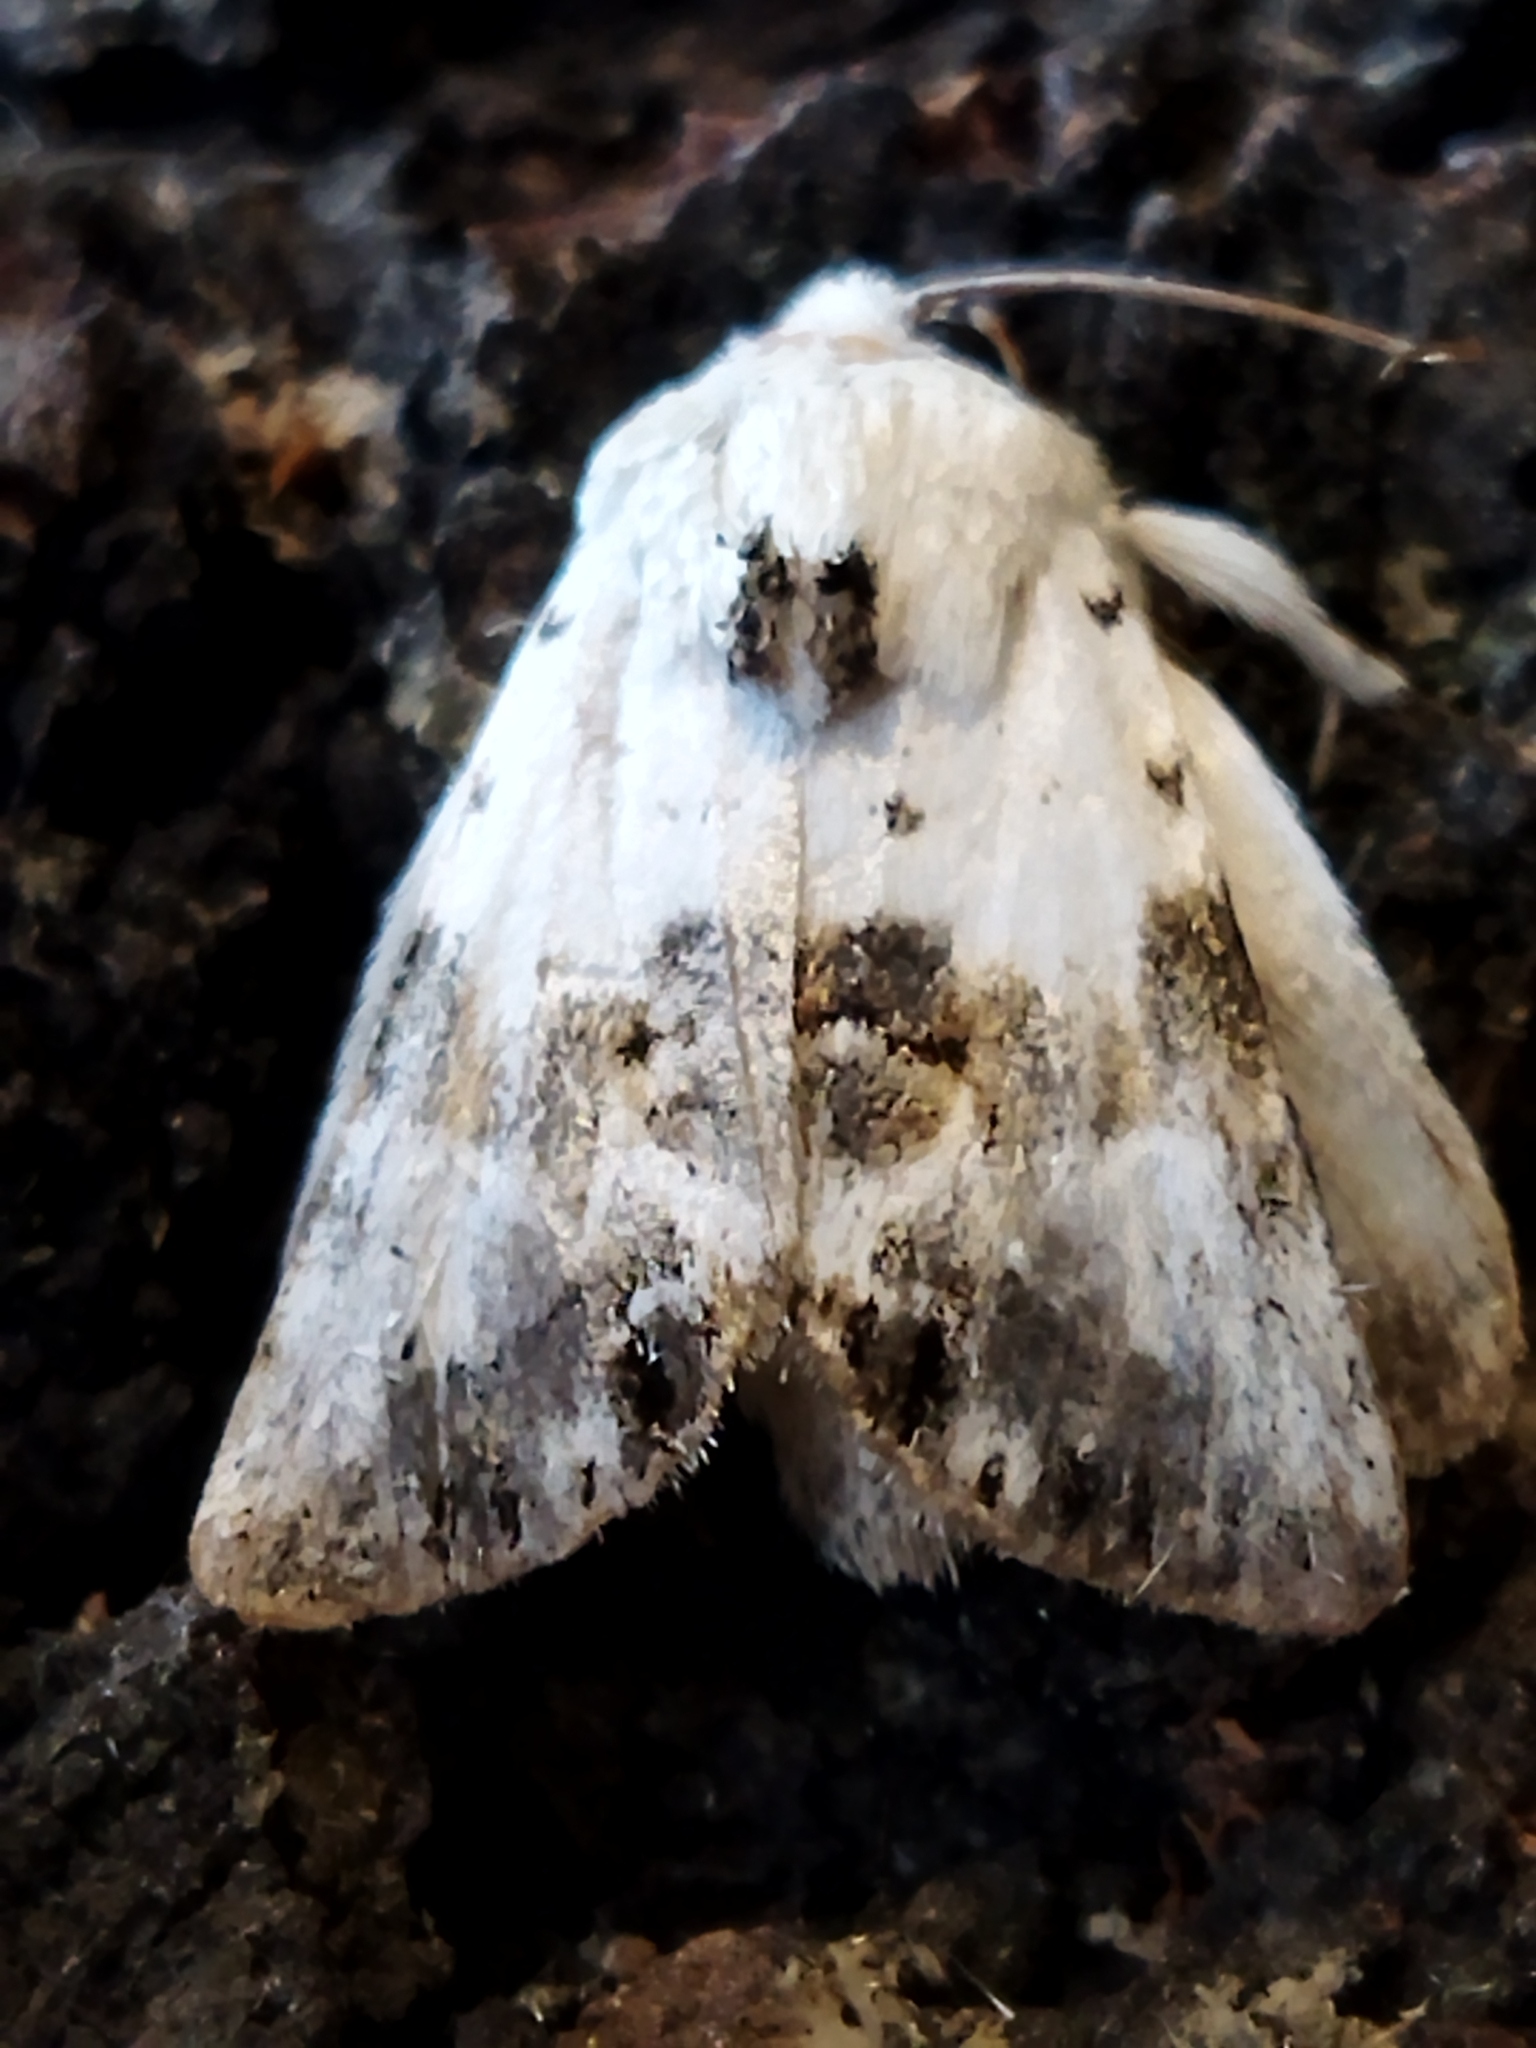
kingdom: Animalia
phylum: Arthropoda
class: Insecta
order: Lepidoptera
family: Noctuidae
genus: Calophasia
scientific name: Calophasia opalina
